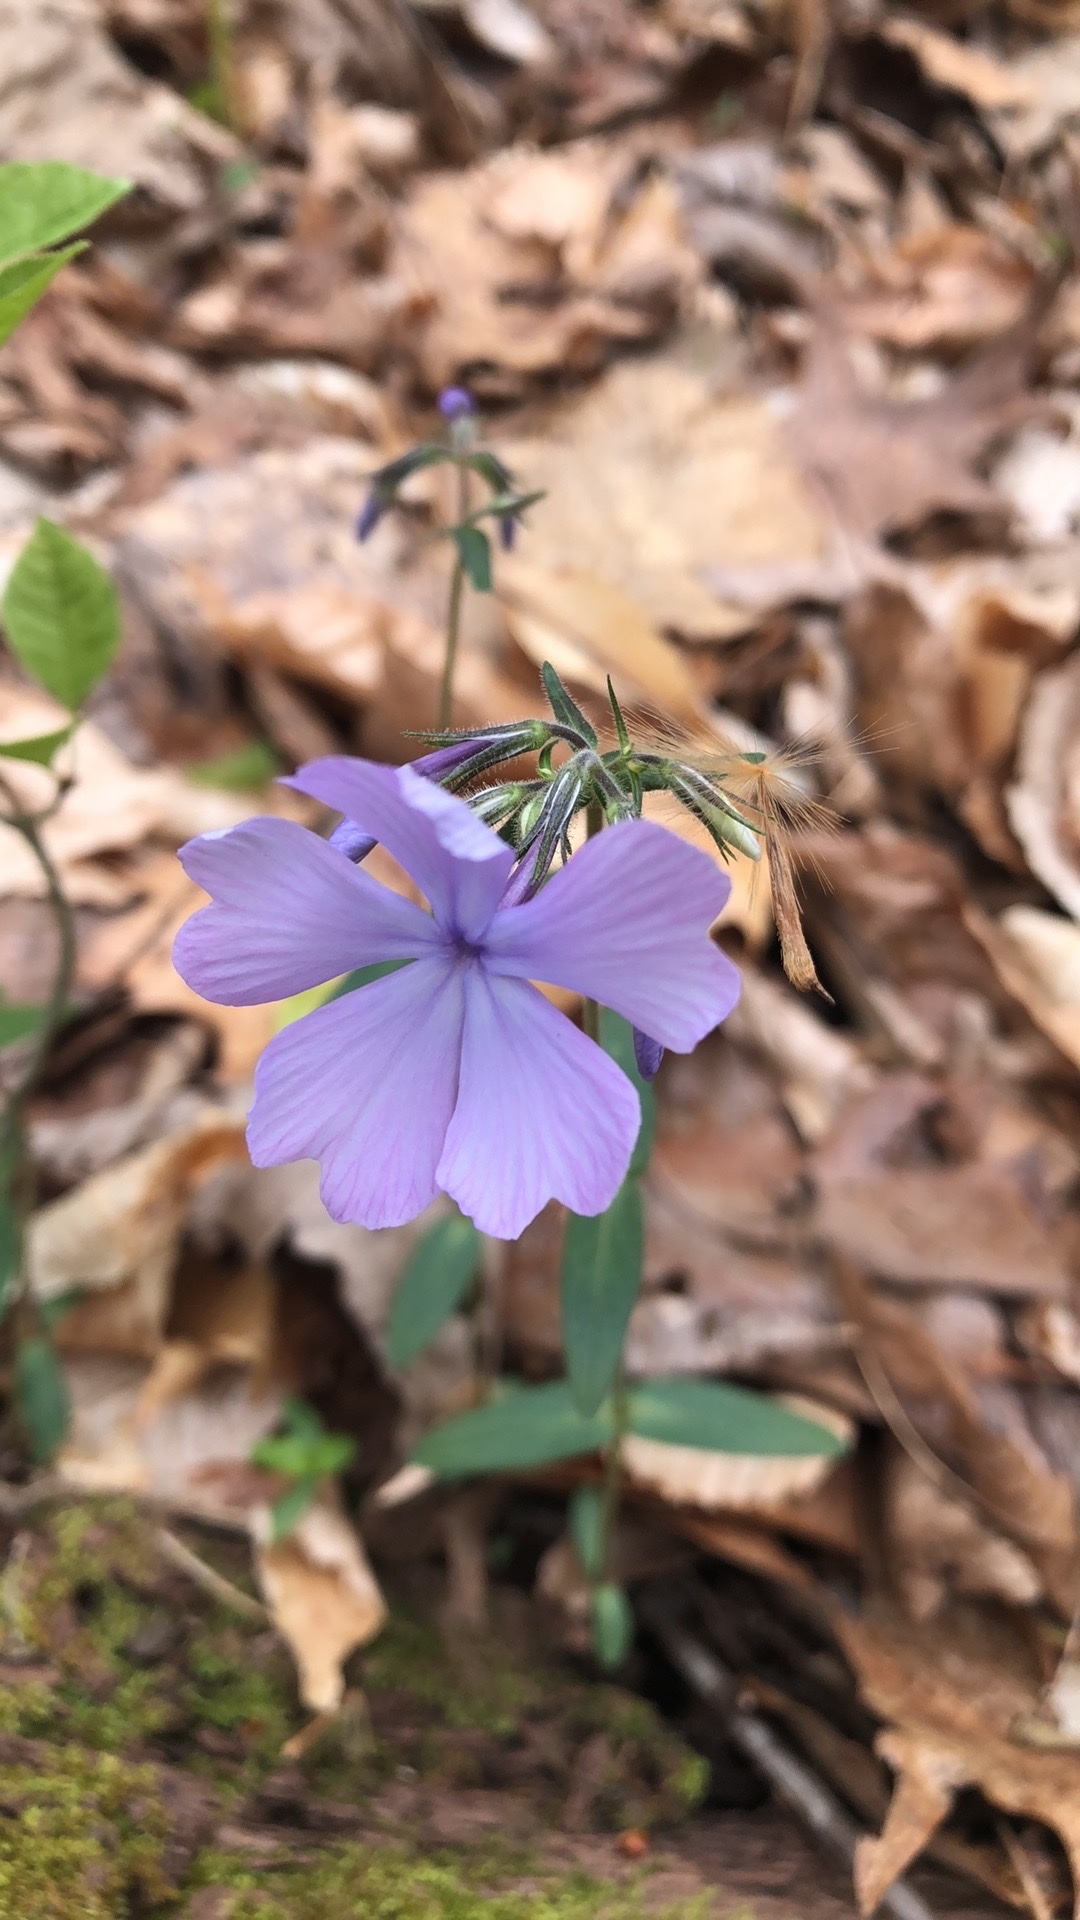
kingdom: Plantae
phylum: Tracheophyta
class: Magnoliopsida
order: Ericales
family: Polemoniaceae
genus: Phlox
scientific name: Phlox divaricata
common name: Blue phlox
